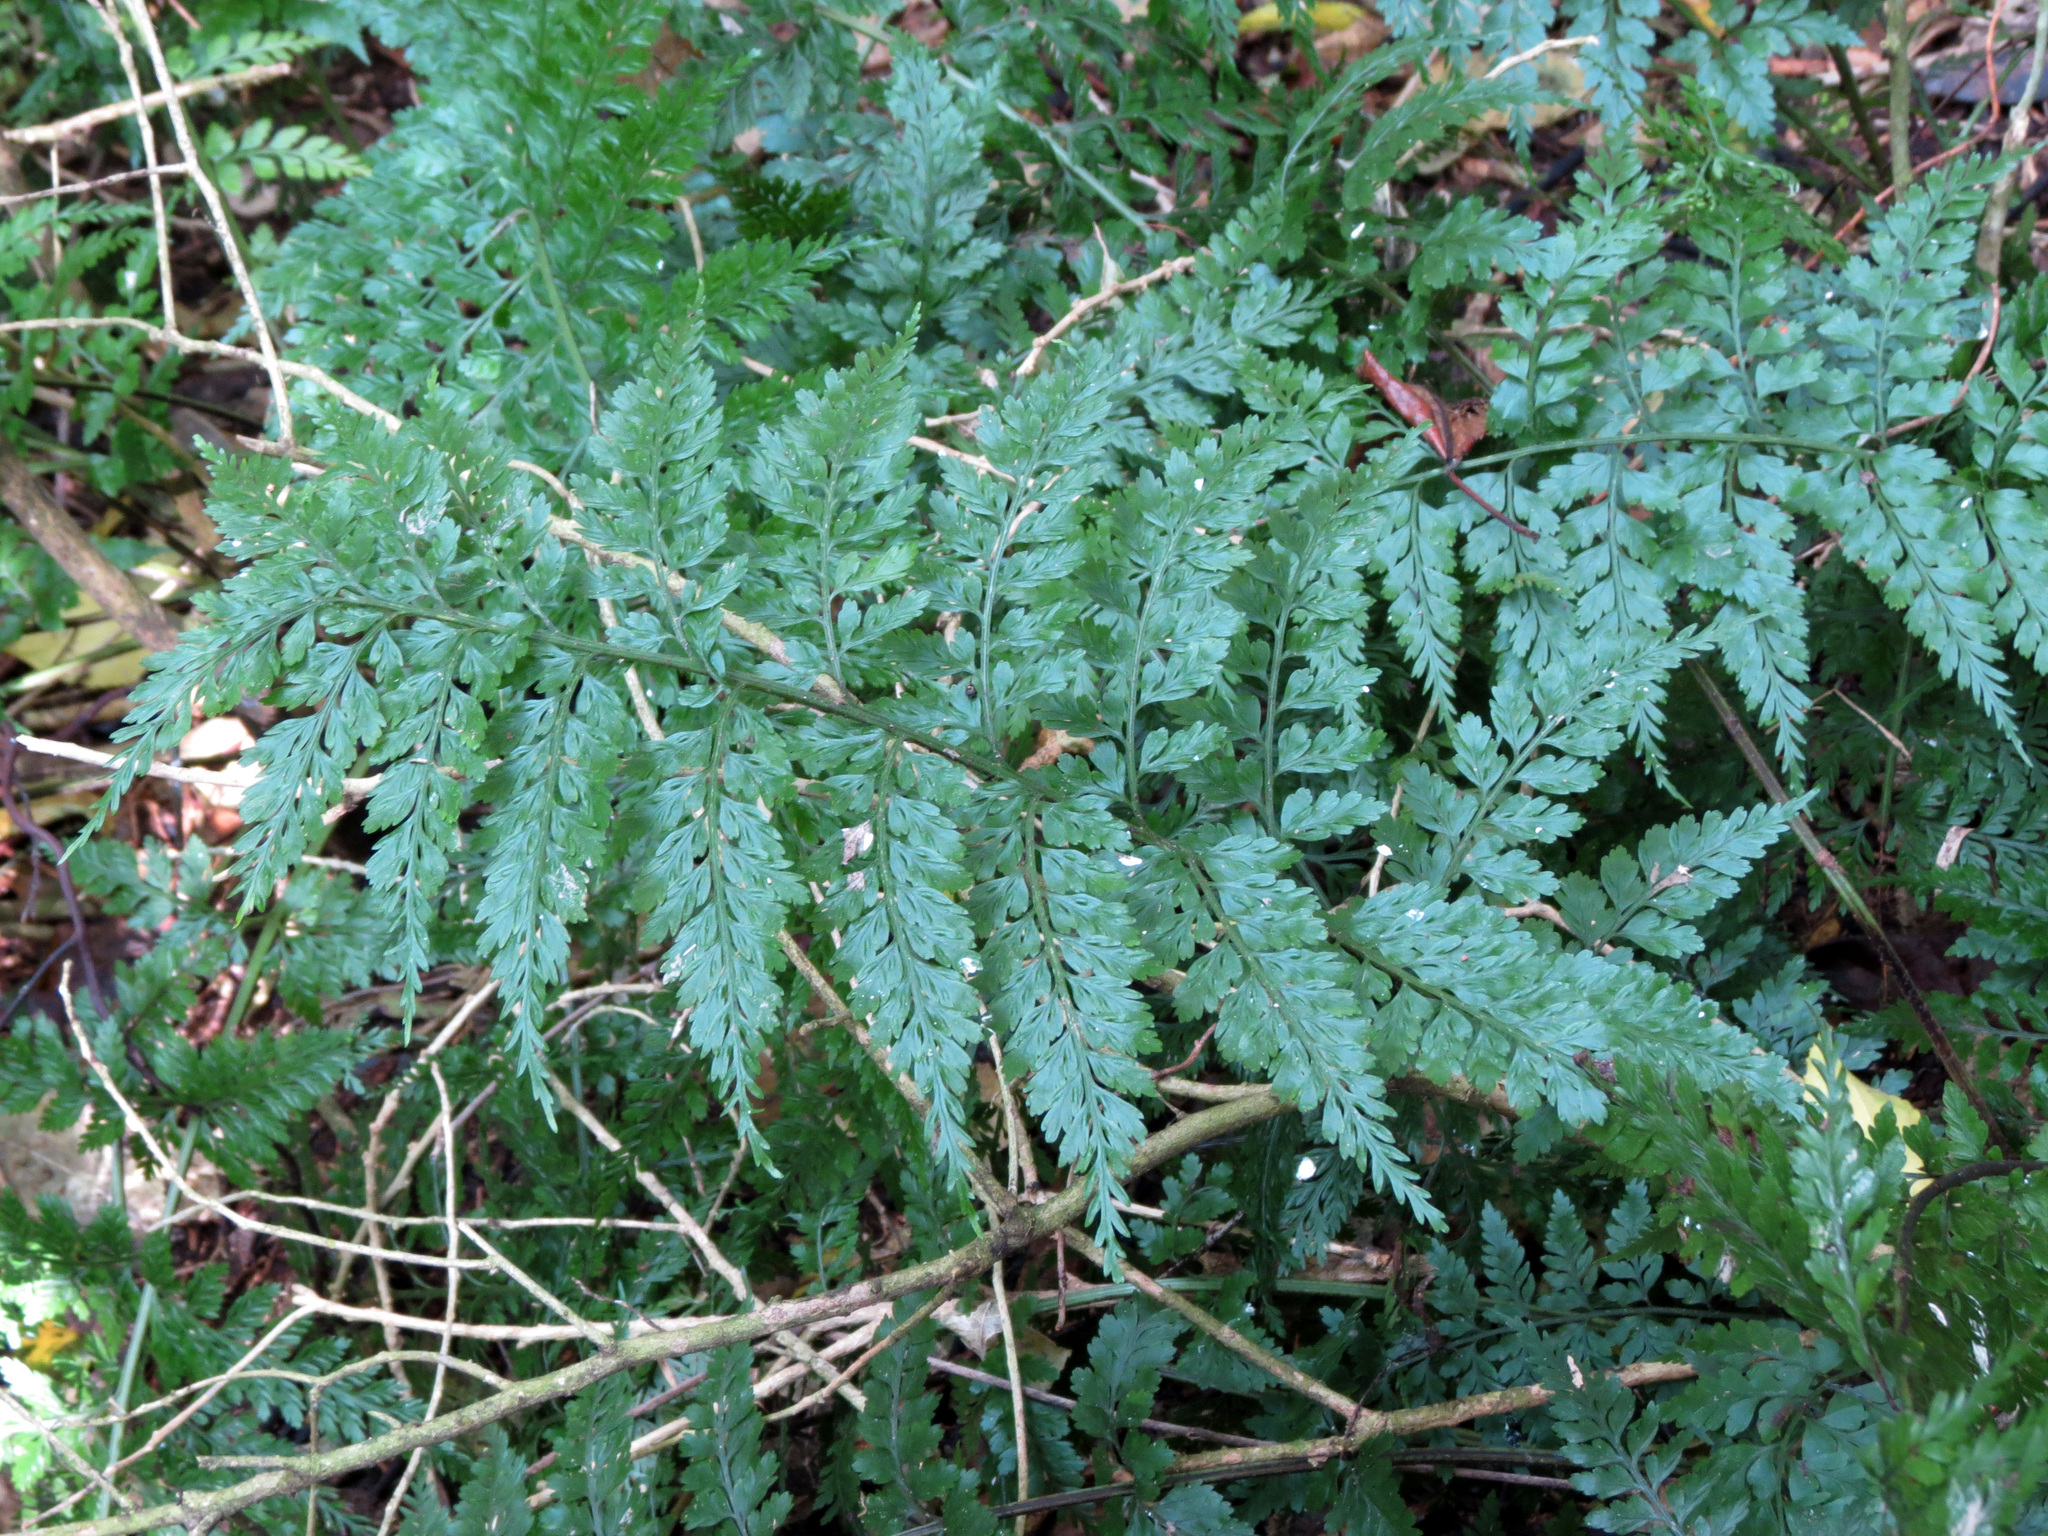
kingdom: Plantae
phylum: Tracheophyta
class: Polypodiopsida
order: Polypodiales
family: Aspleniaceae
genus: Asplenium
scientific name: Asplenium
